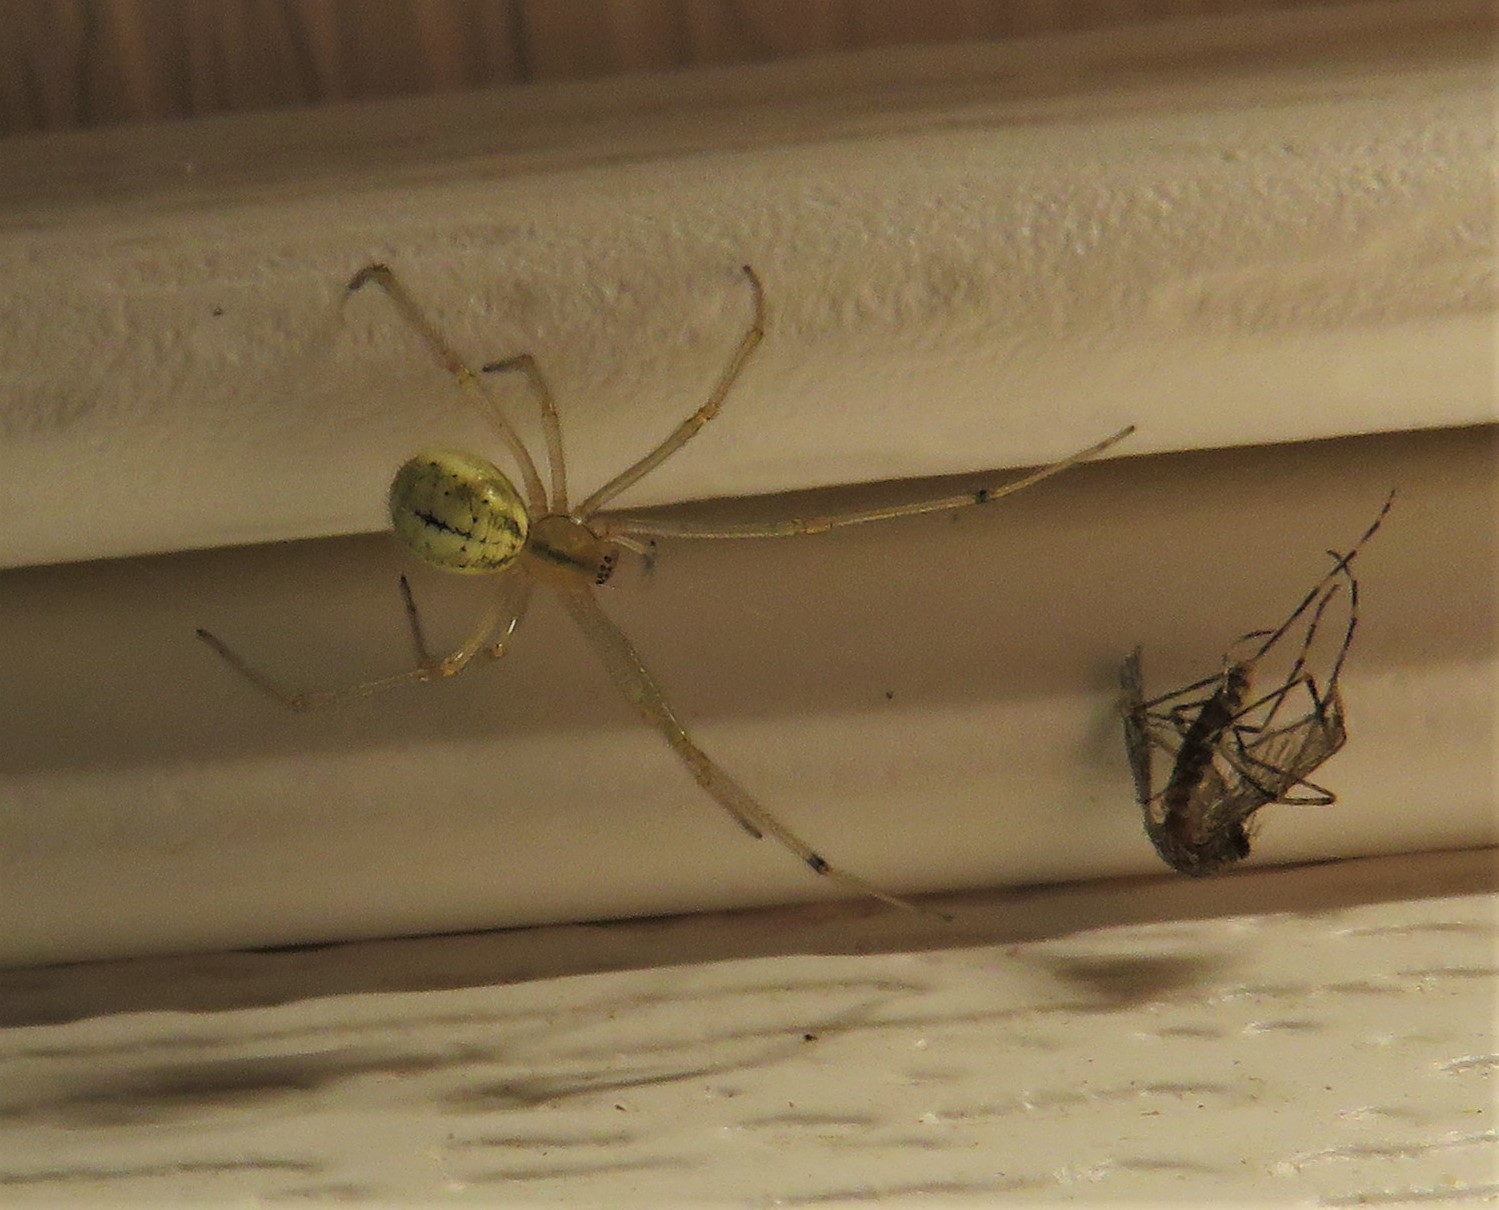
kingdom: Animalia
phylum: Arthropoda
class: Arachnida
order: Araneae
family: Theridiidae
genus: Enoplognatha
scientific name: Enoplognatha ovata
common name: Common candy-striped spider
